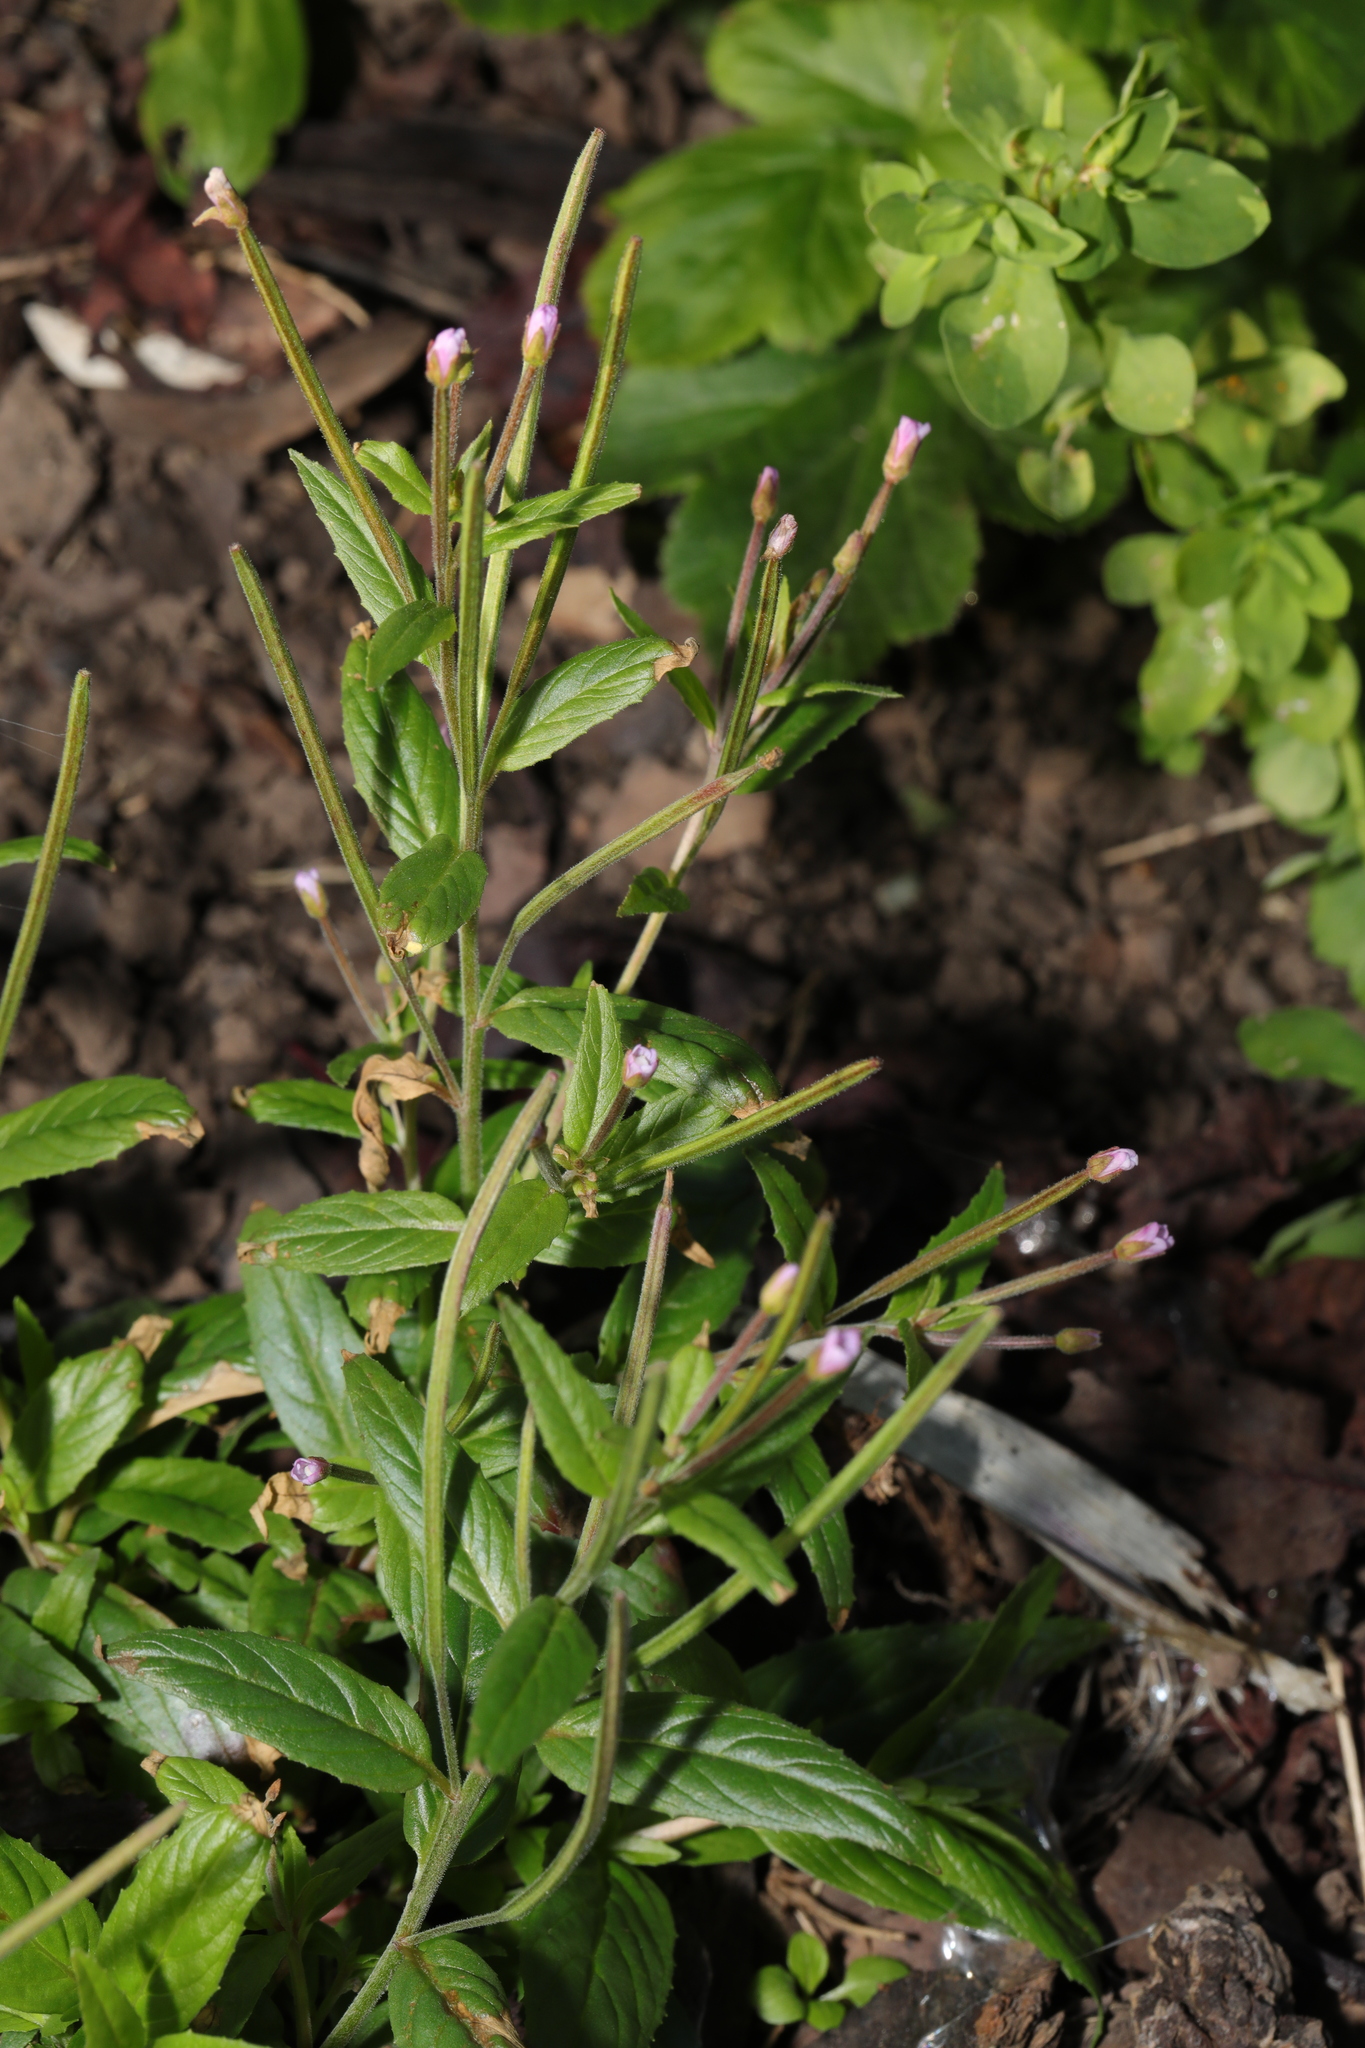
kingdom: Plantae
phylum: Tracheophyta
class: Magnoliopsida
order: Myrtales
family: Onagraceae
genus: Epilobium
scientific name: Epilobium parviflorum
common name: Hoary willowherb
